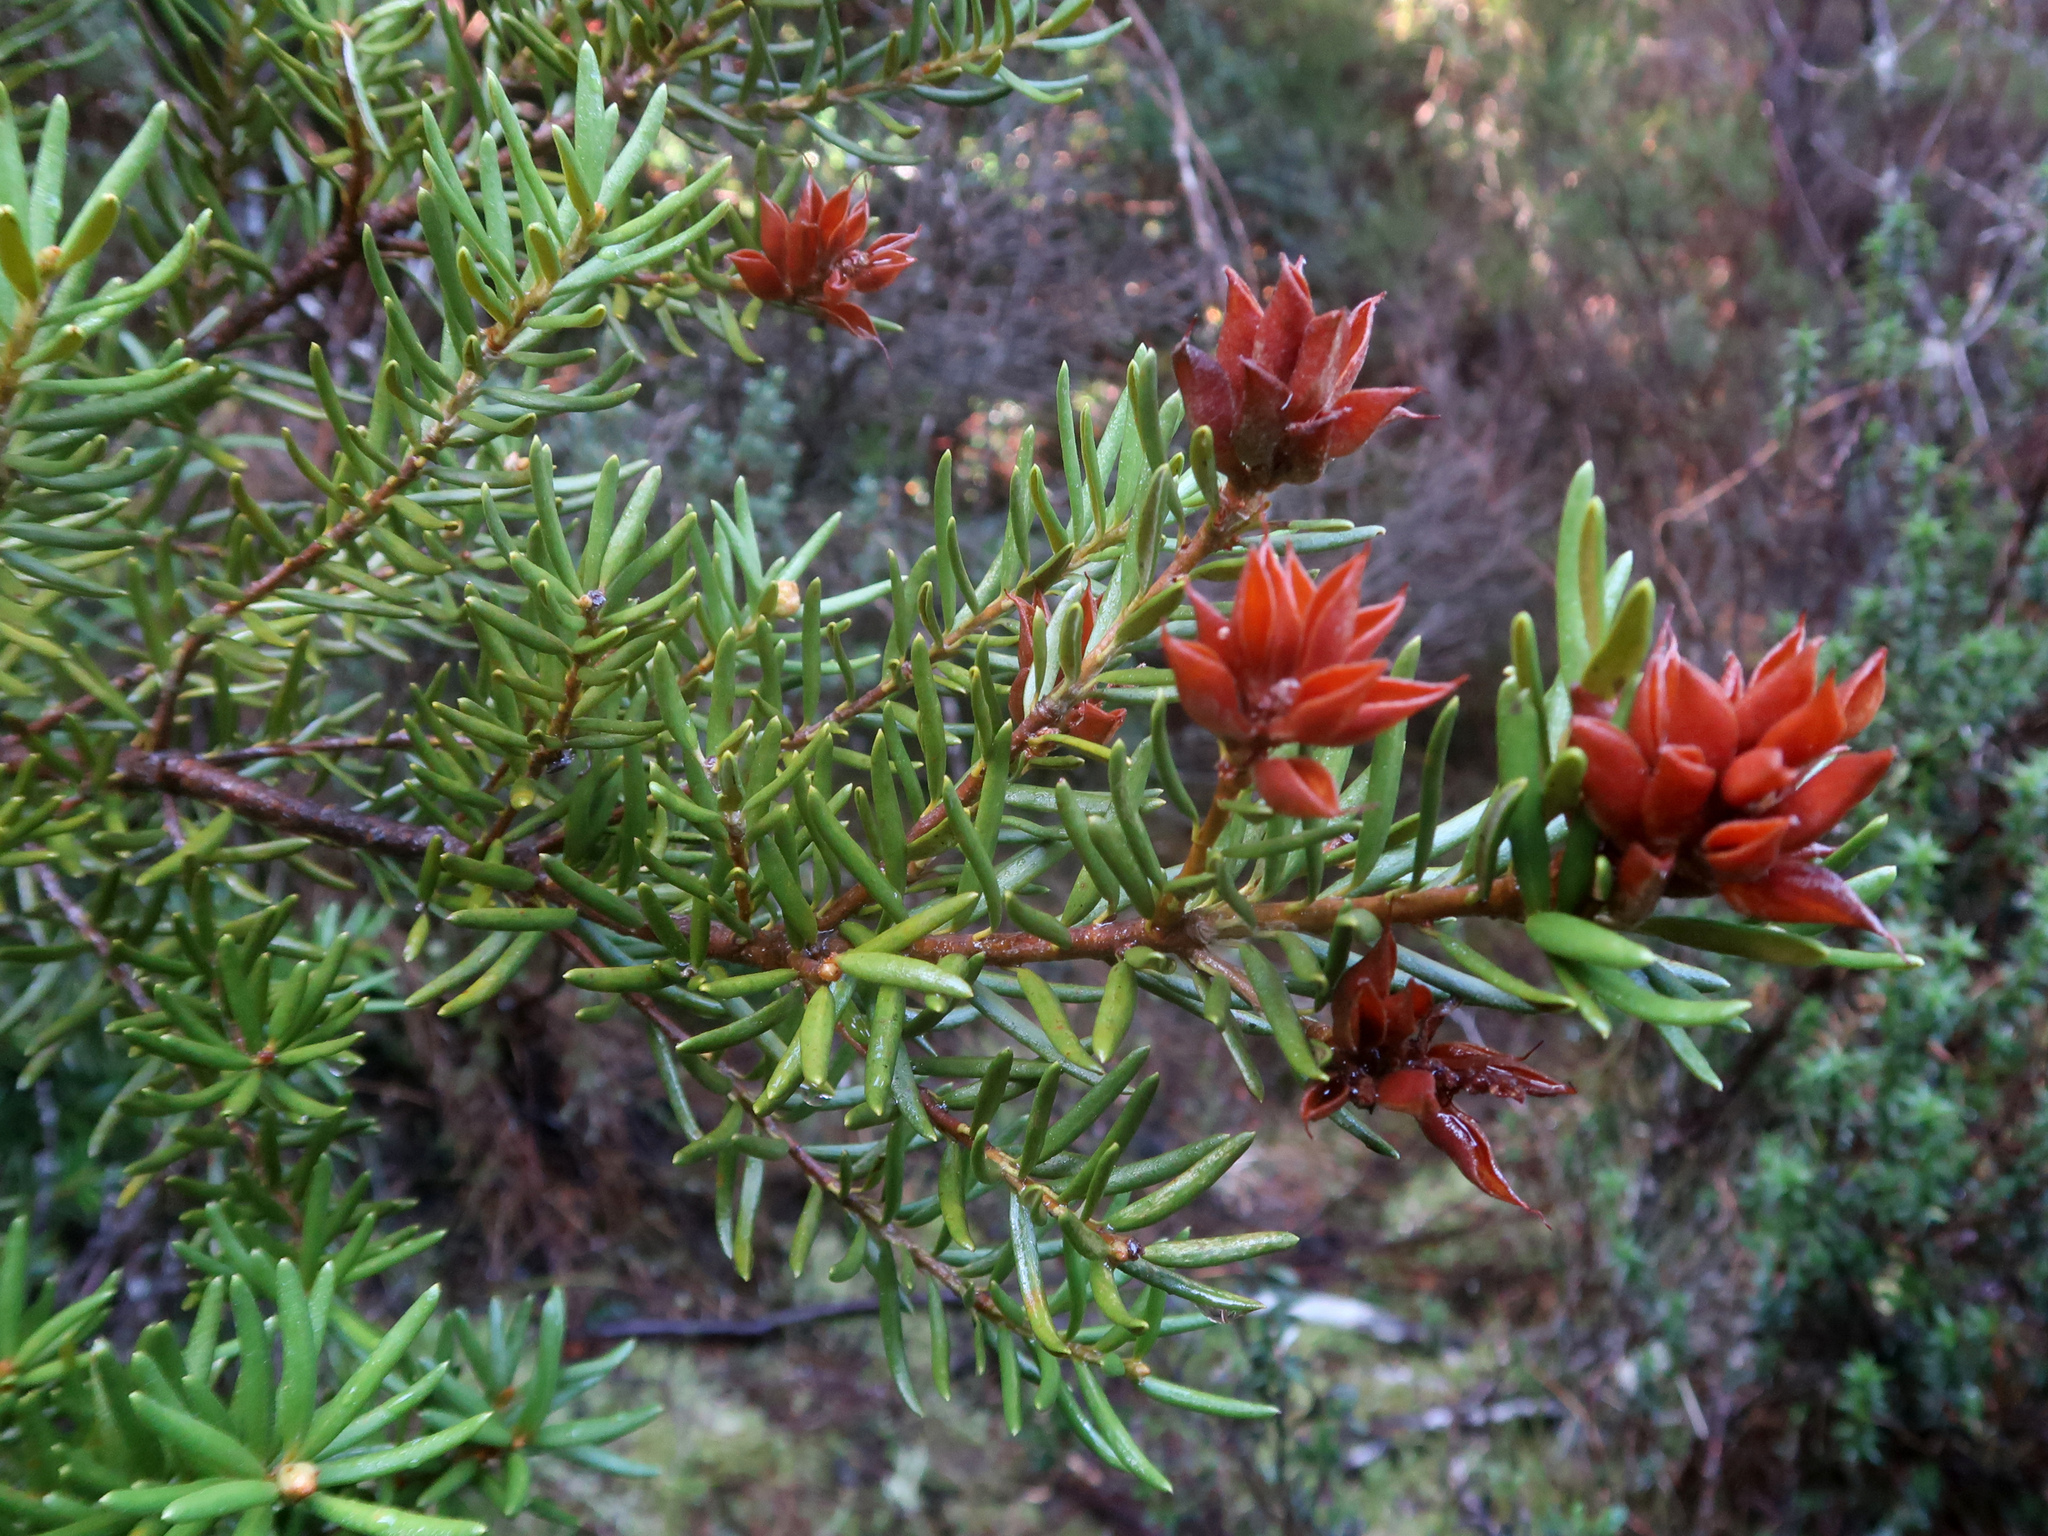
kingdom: Plantae
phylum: Tracheophyta
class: Magnoliopsida
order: Proteales
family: Proteaceae
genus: Orites
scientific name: Orites revolutus
